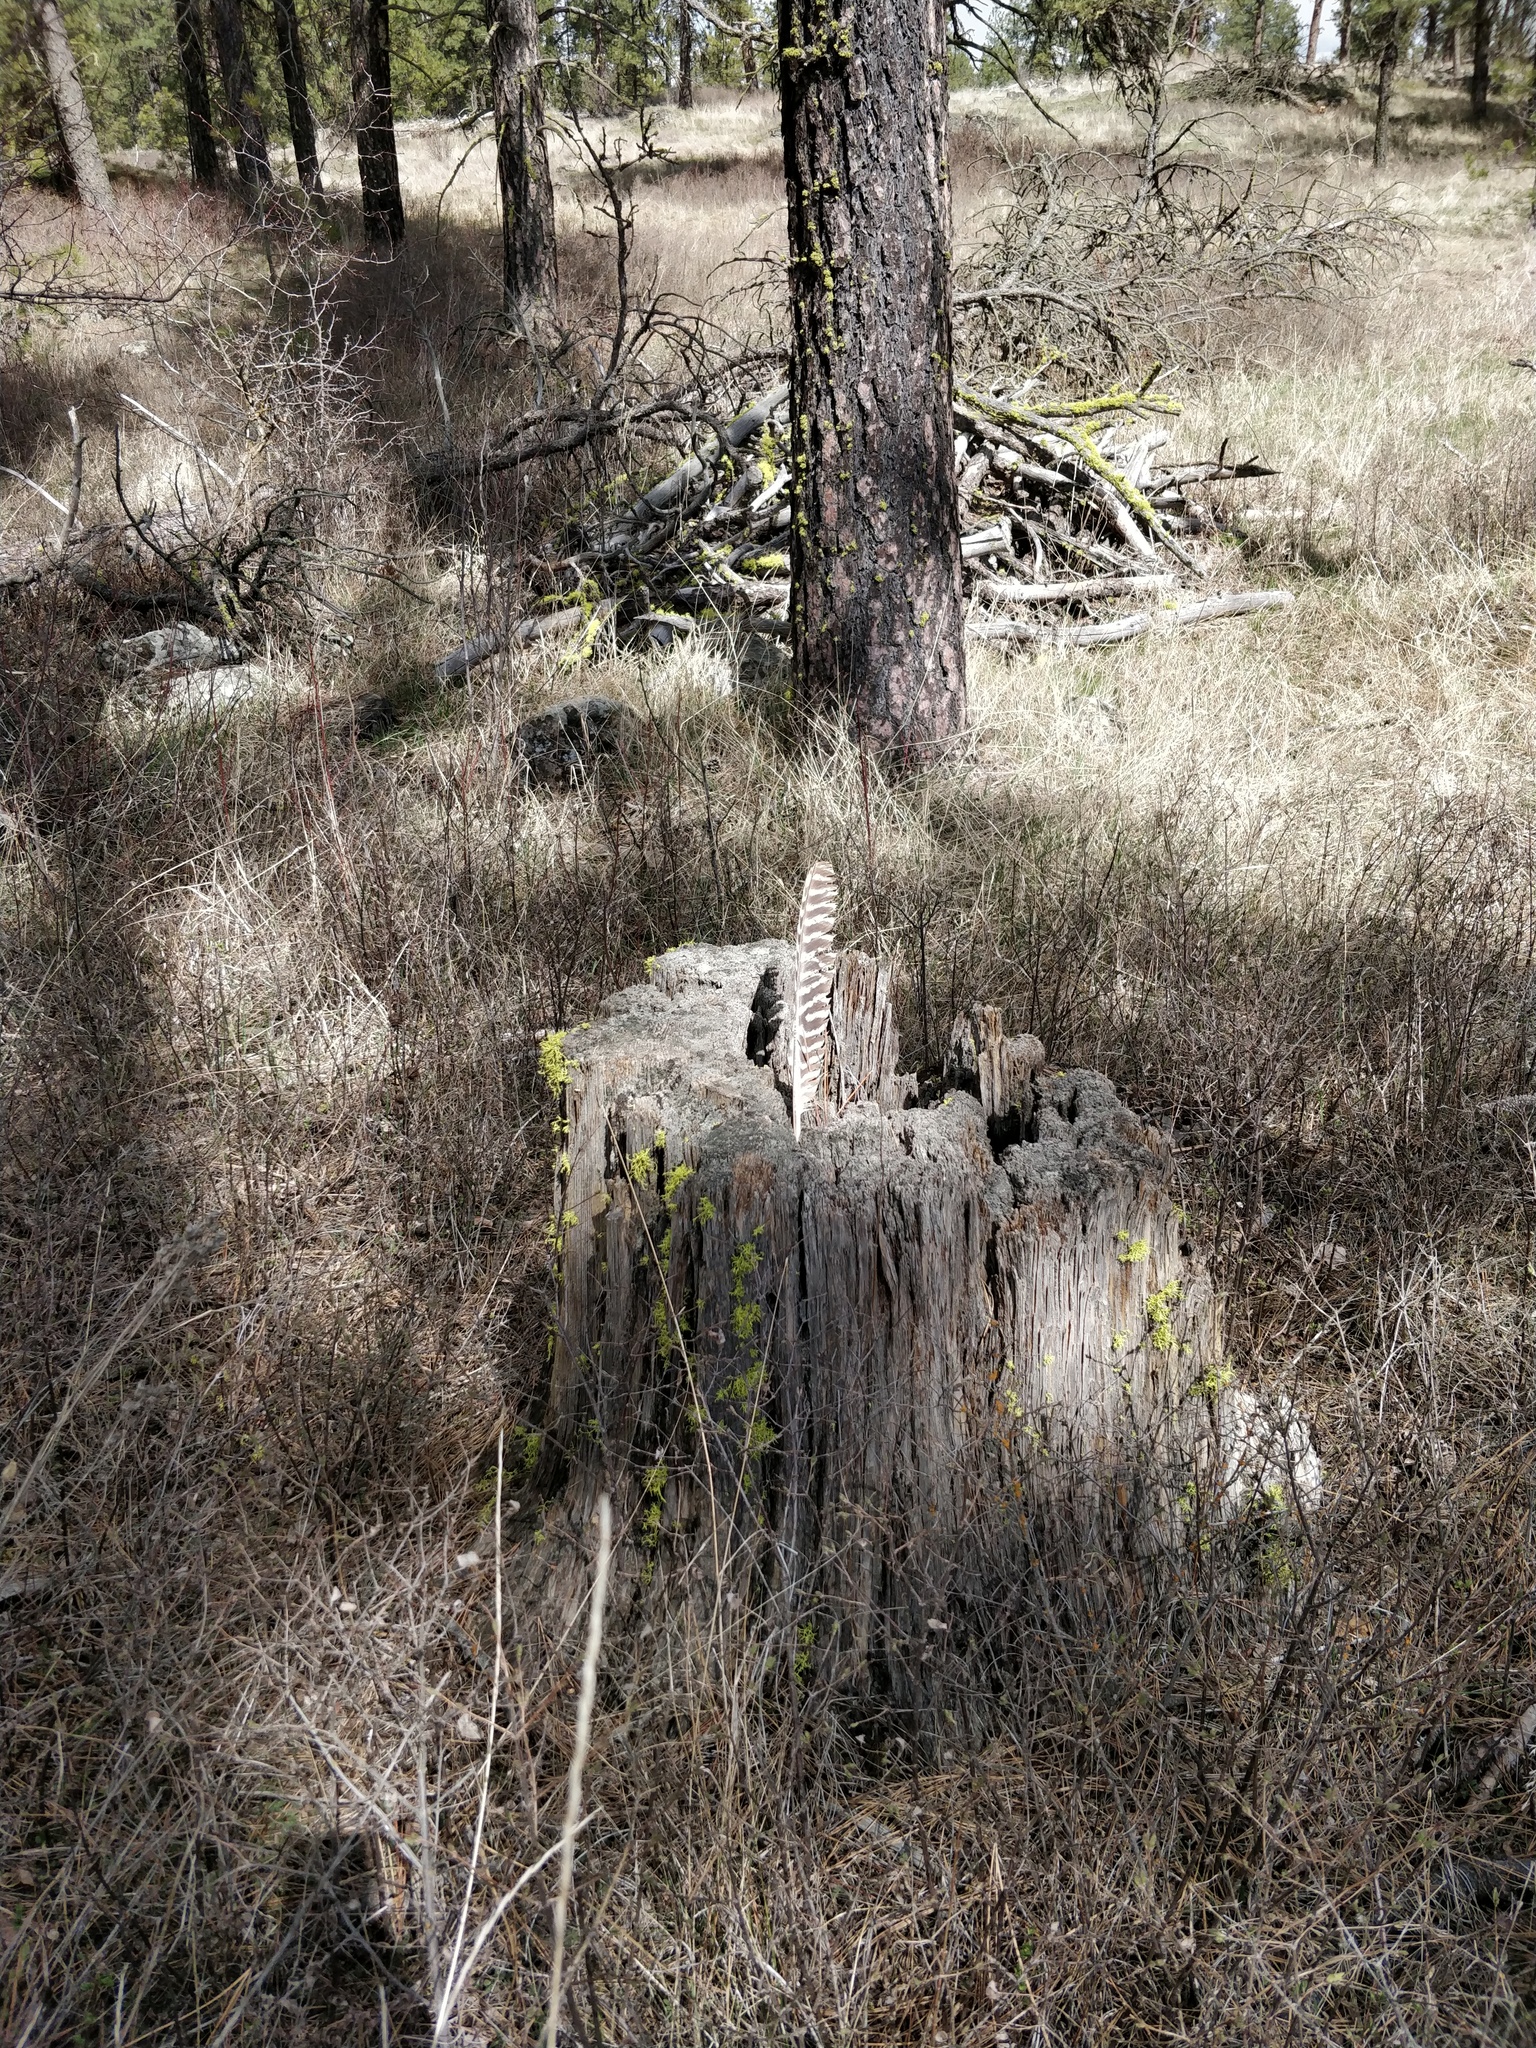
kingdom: Animalia
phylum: Chordata
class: Aves
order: Galliformes
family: Phasianidae
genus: Meleagris
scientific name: Meleagris gallopavo
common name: Wild turkey
